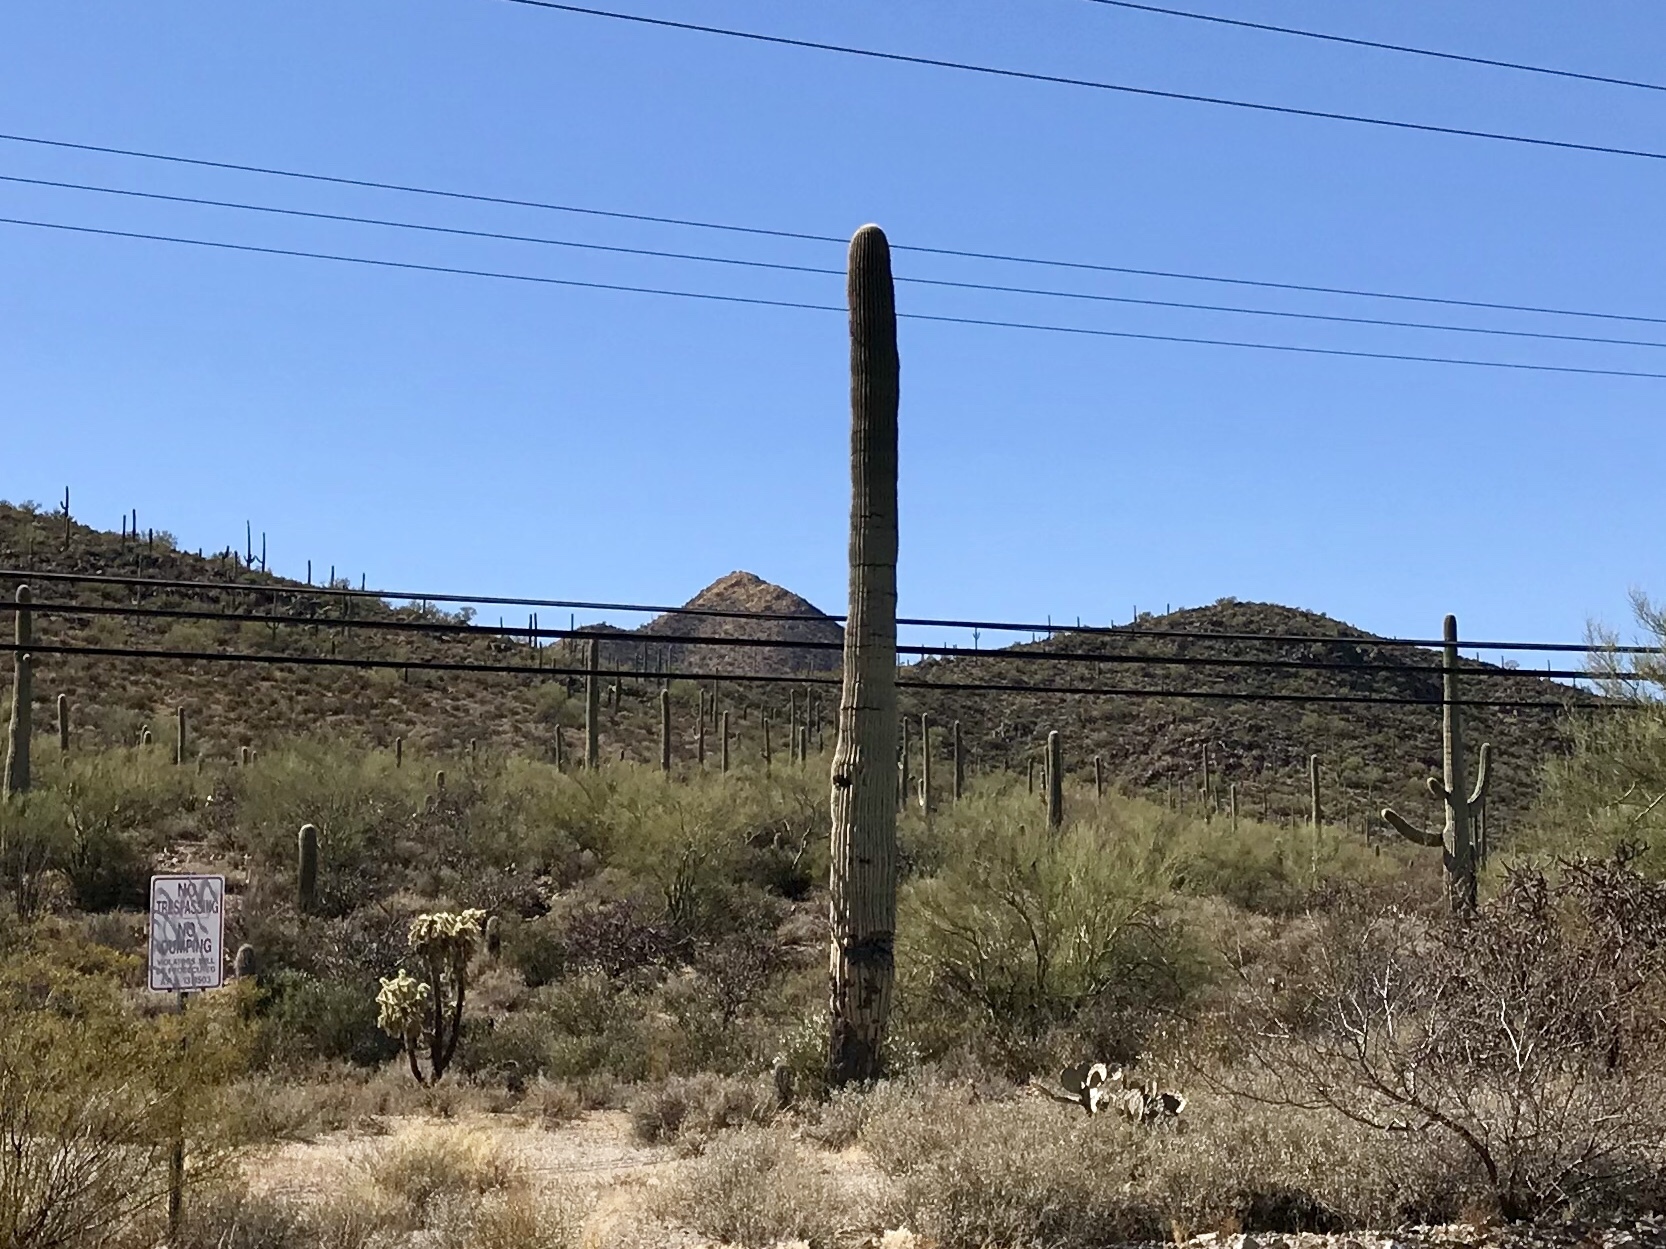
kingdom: Plantae
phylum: Tracheophyta
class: Magnoliopsida
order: Caryophyllales
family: Cactaceae
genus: Carnegiea
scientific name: Carnegiea gigantea
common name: Saguaro
